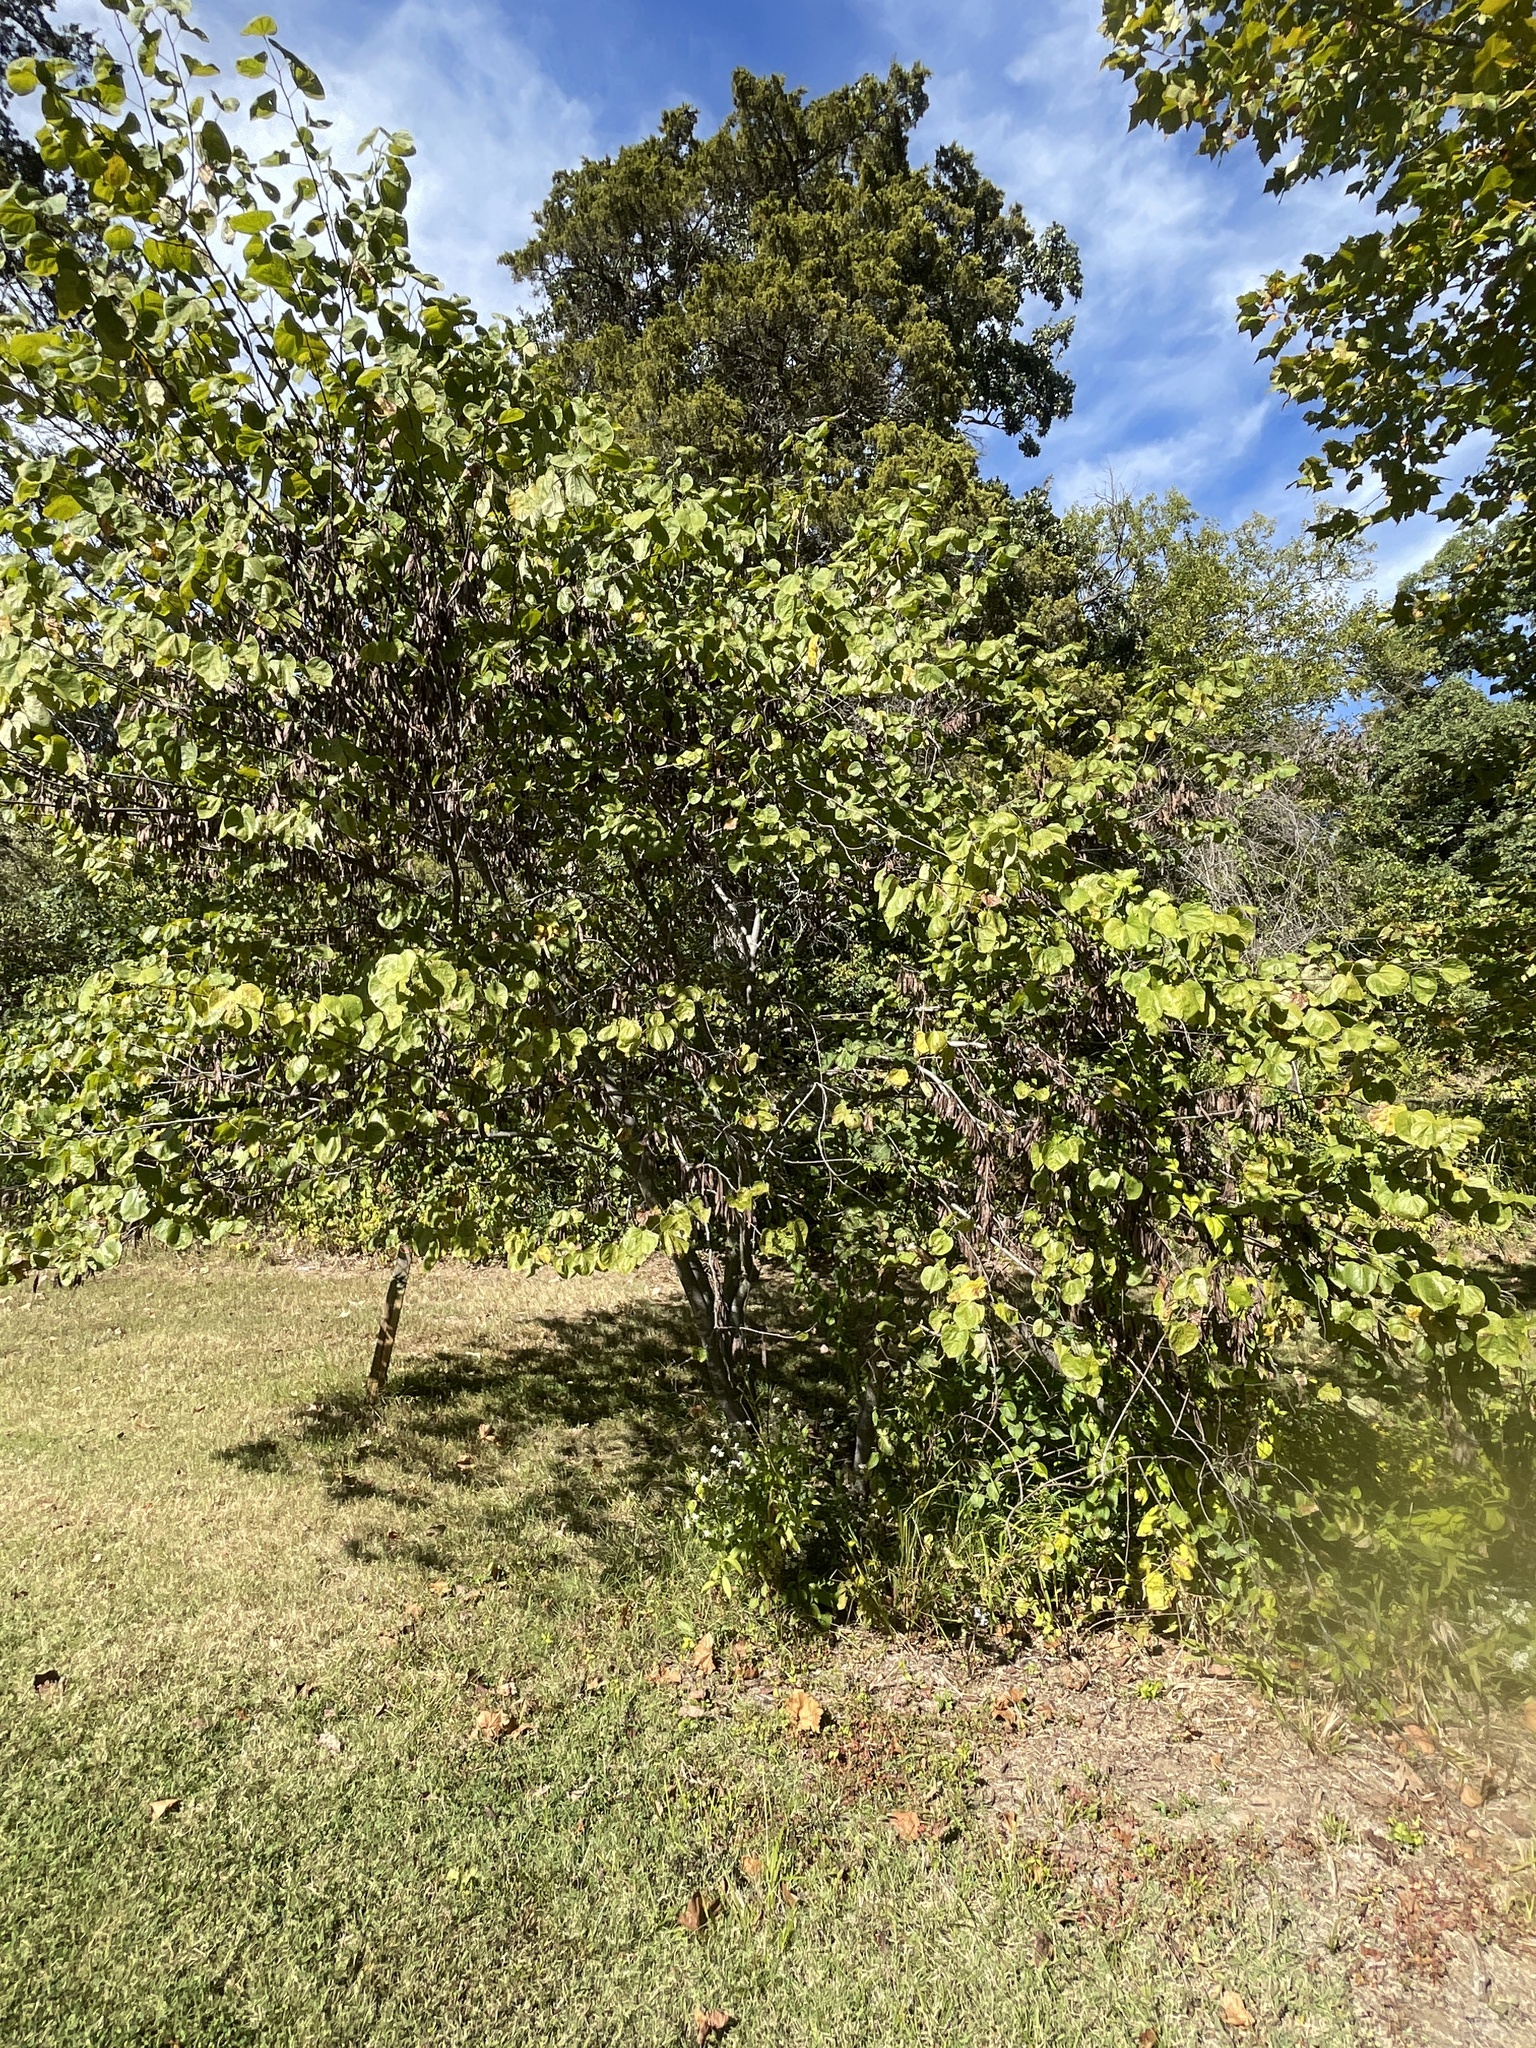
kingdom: Plantae
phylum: Tracheophyta
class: Magnoliopsida
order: Fabales
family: Fabaceae
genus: Cercis
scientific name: Cercis canadensis
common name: Eastern redbud
